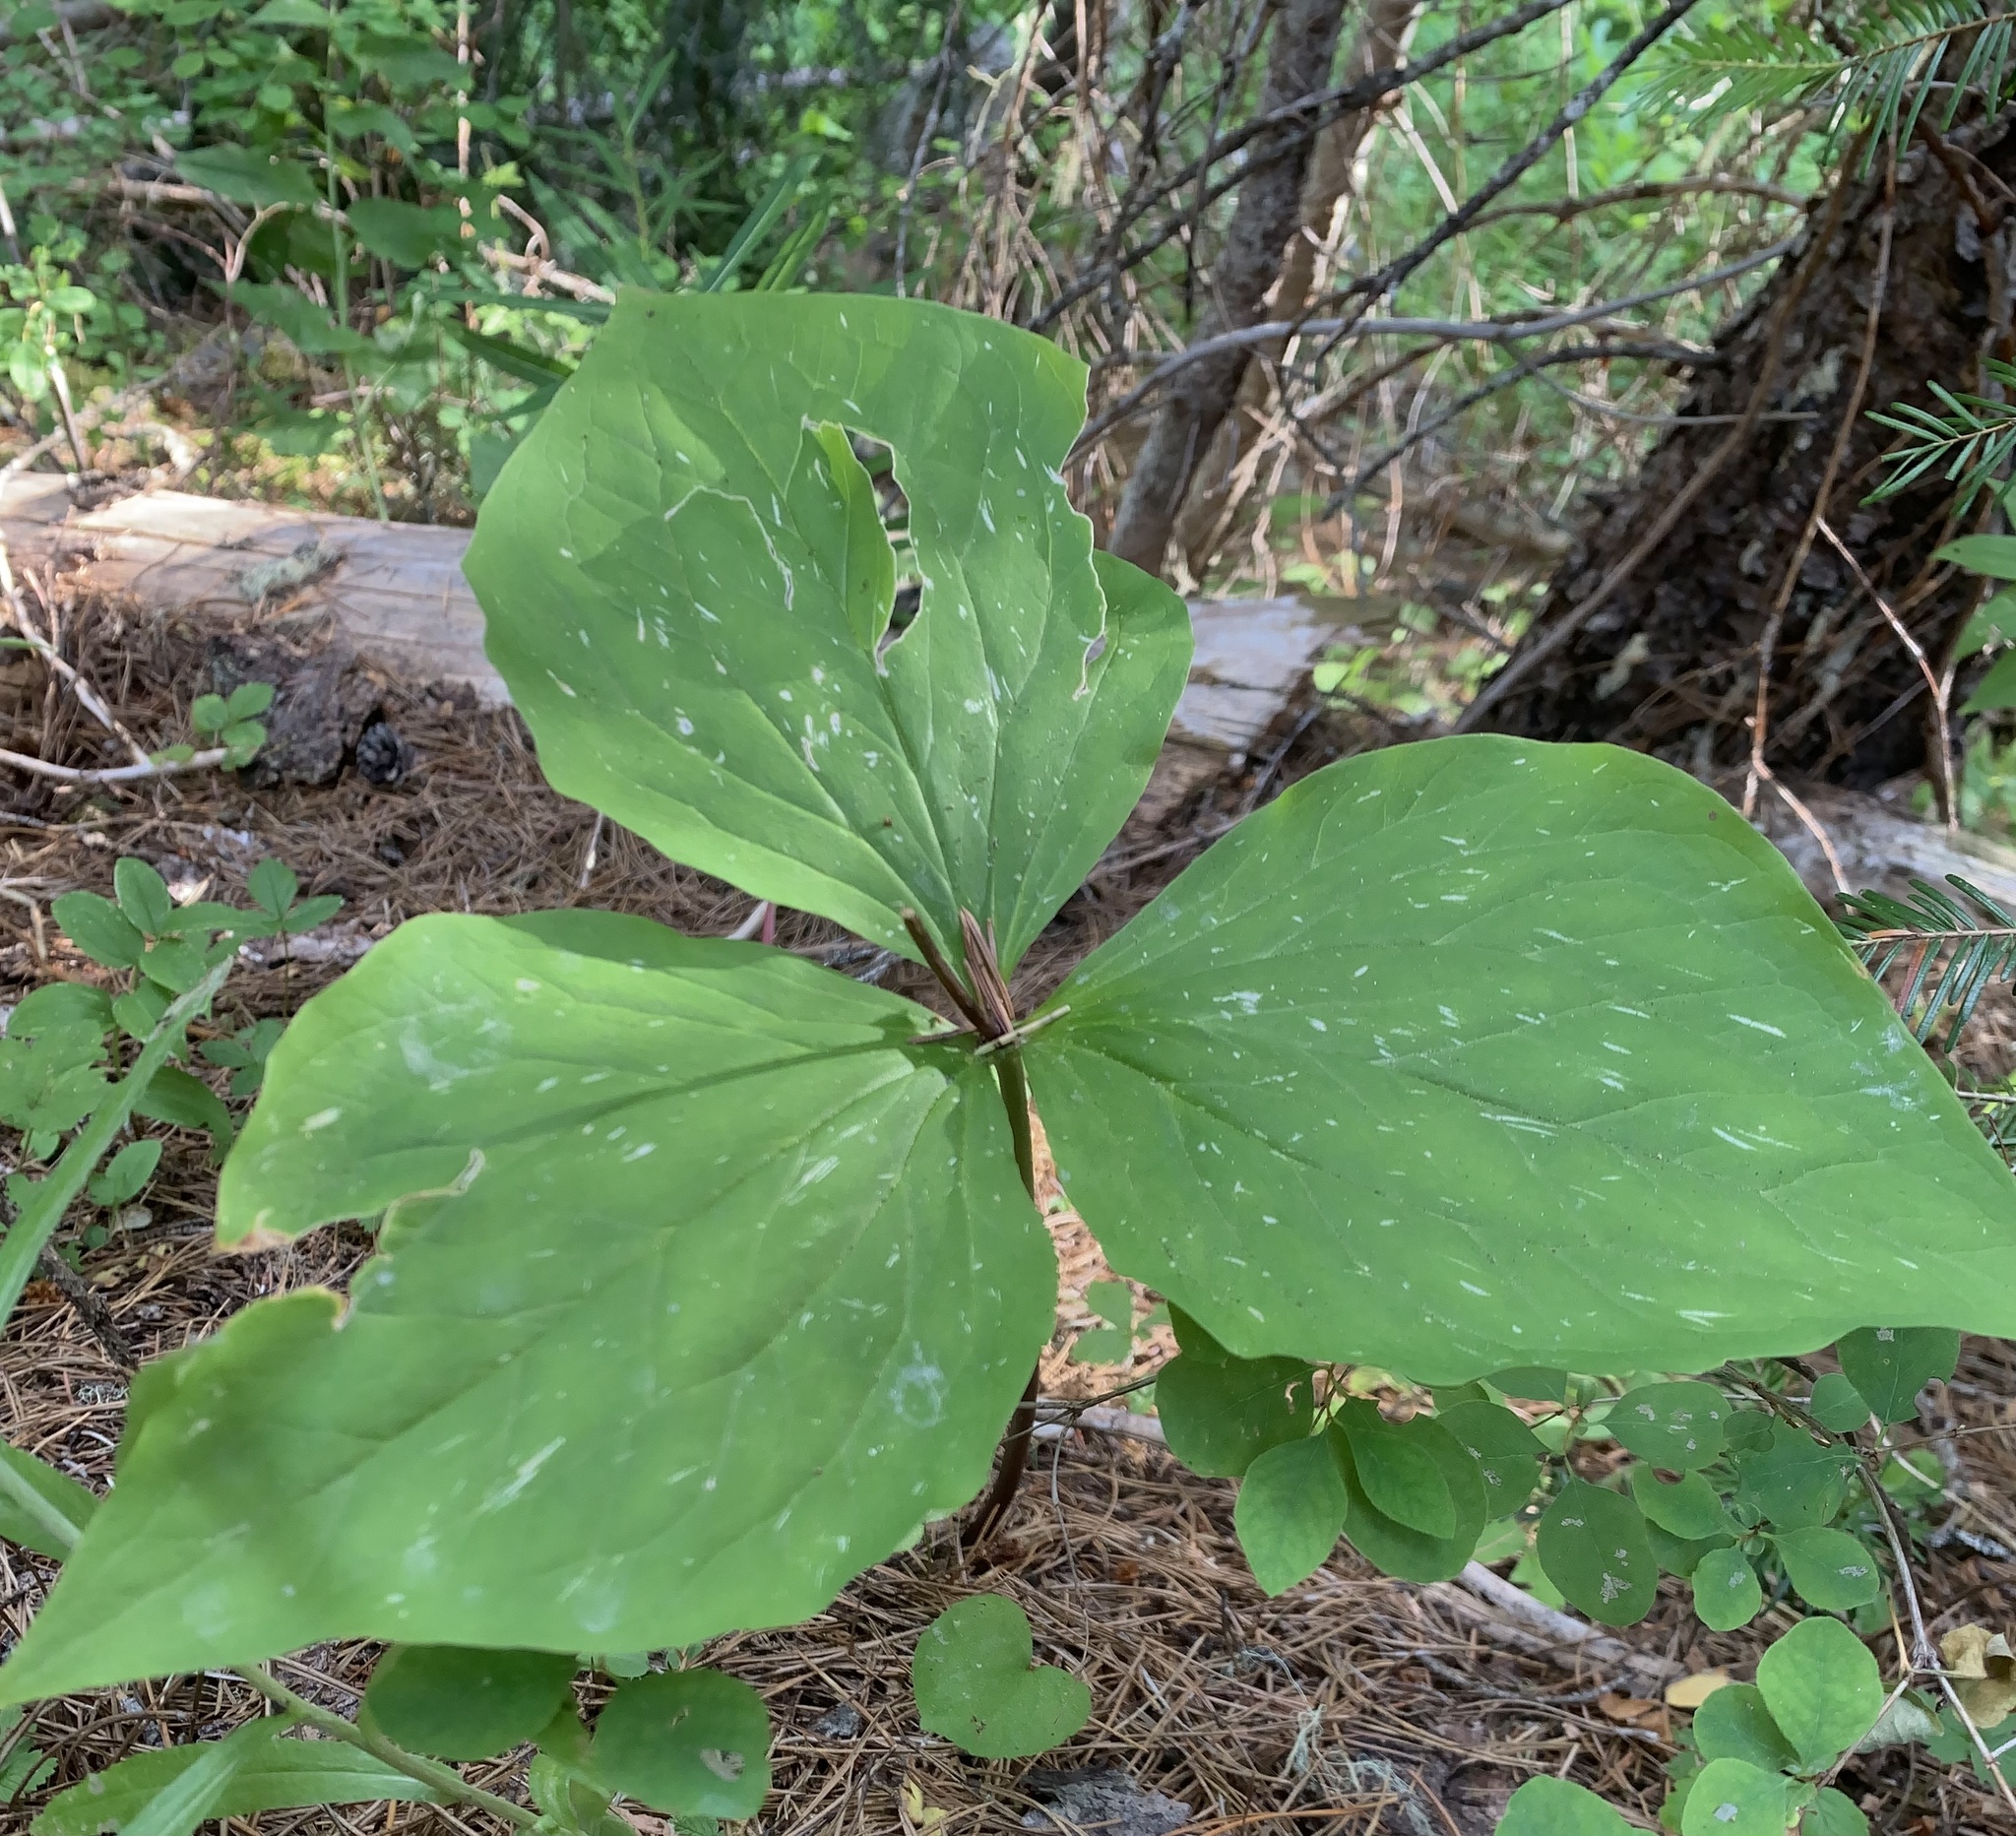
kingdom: Plantae
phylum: Tracheophyta
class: Liliopsida
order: Liliales
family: Melanthiaceae
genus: Trillium
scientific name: Trillium ovatum
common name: Pacific trillium
